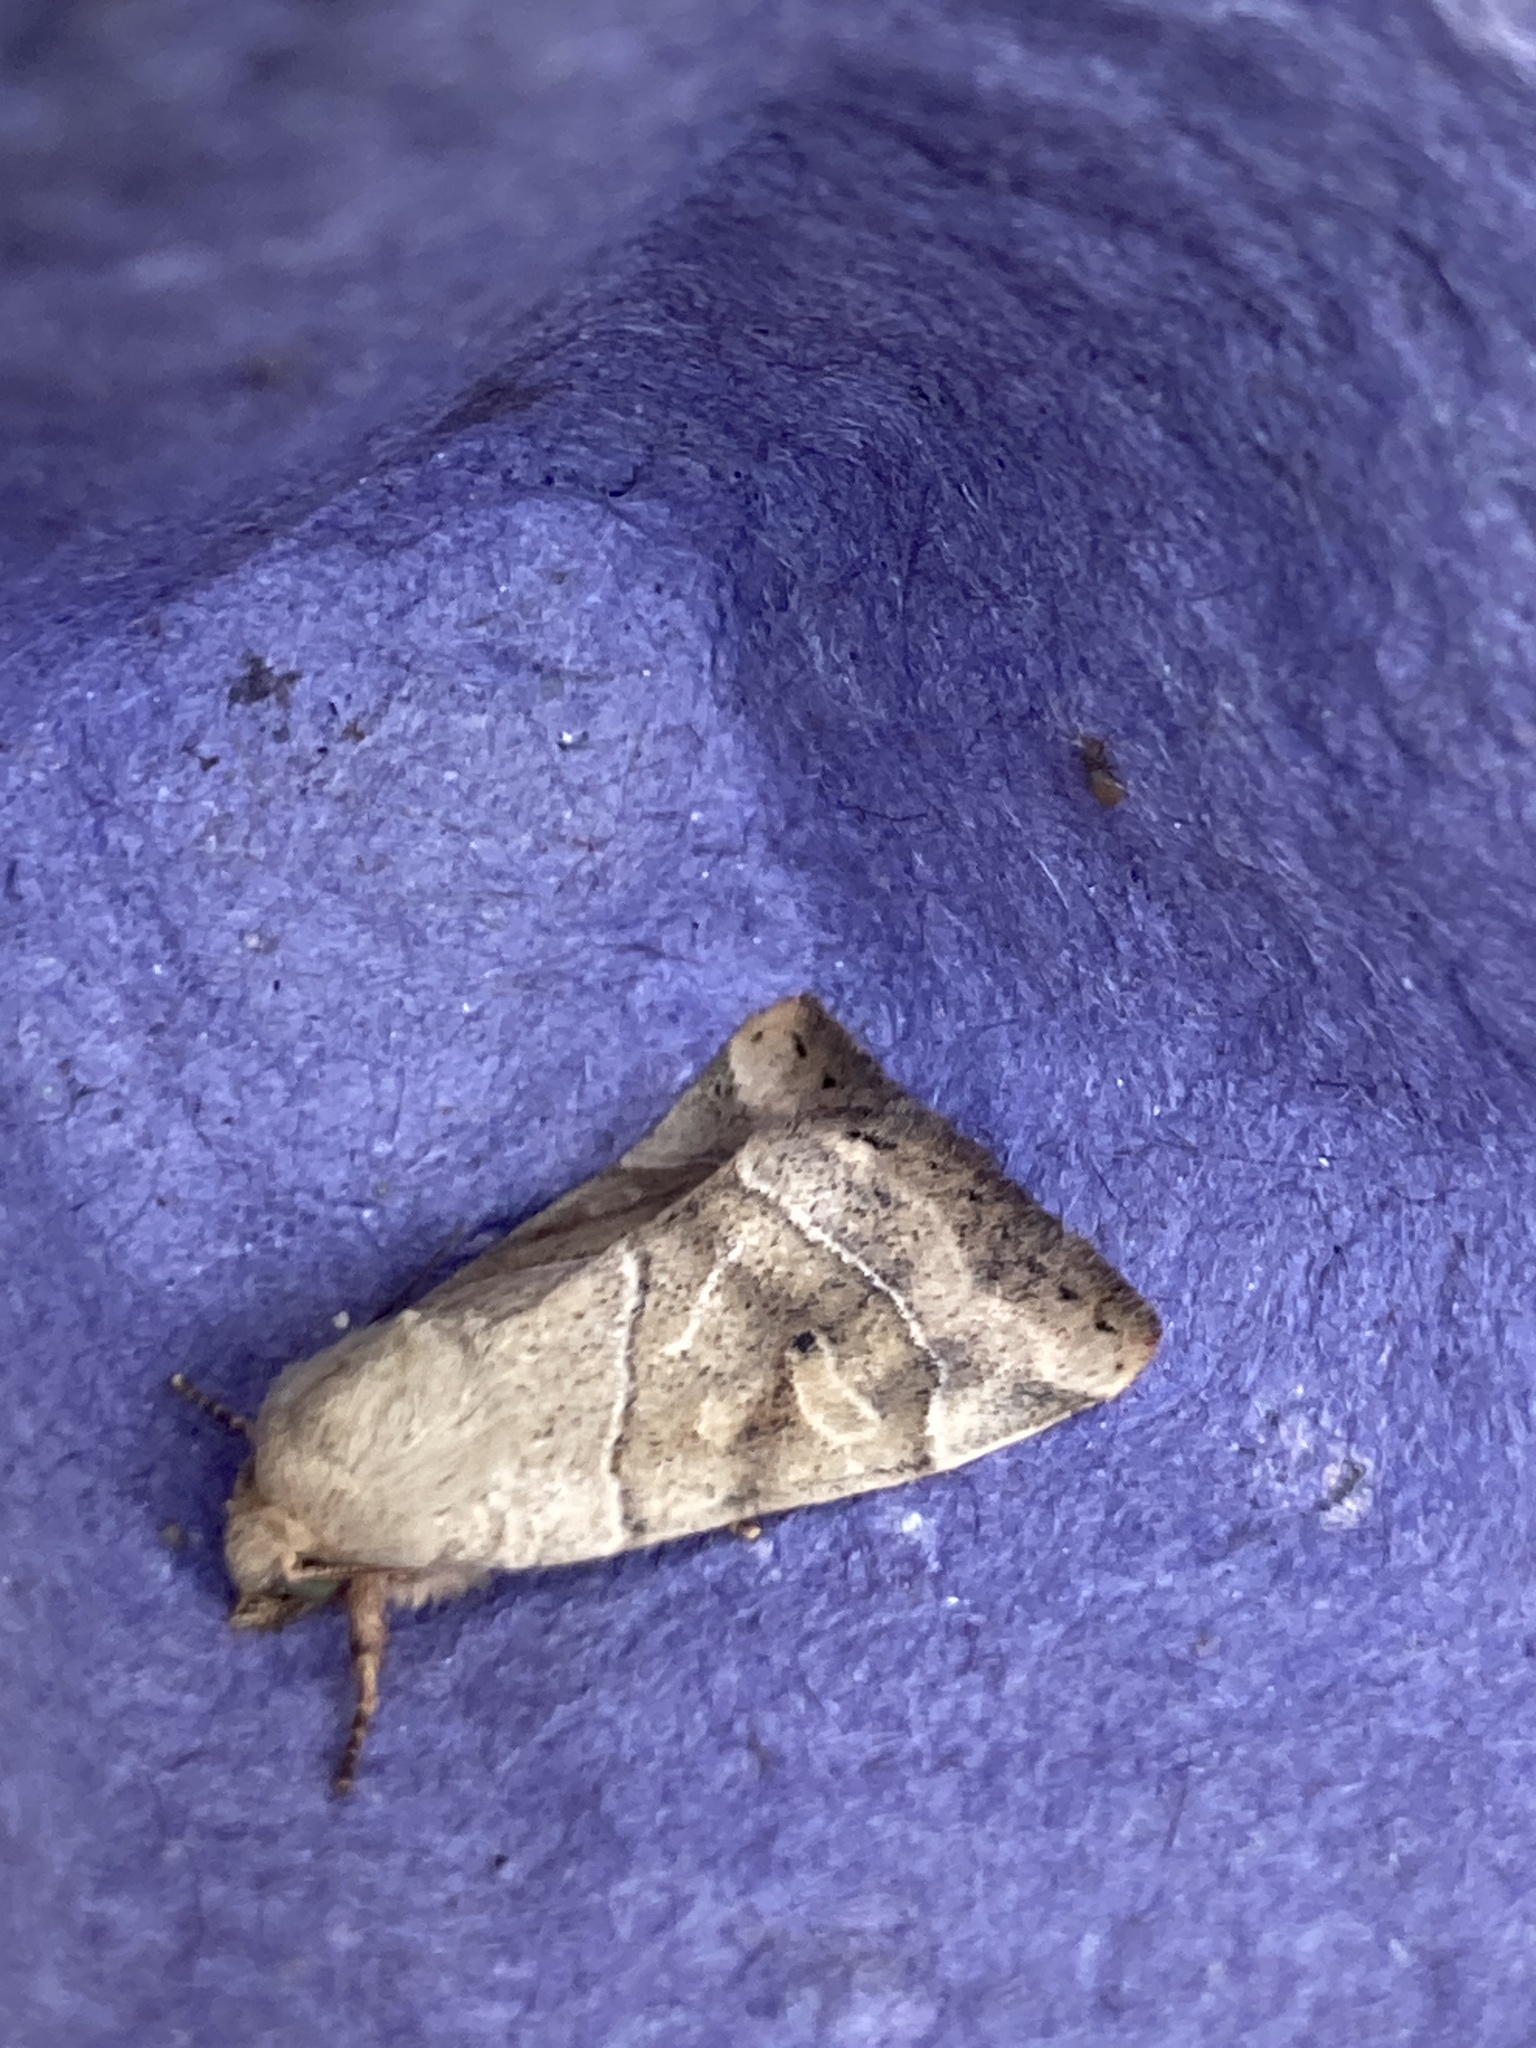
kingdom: Animalia
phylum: Arthropoda
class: Insecta
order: Lepidoptera
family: Noctuidae
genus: Cosmia
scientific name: Cosmia trapezina
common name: Dun-bar
